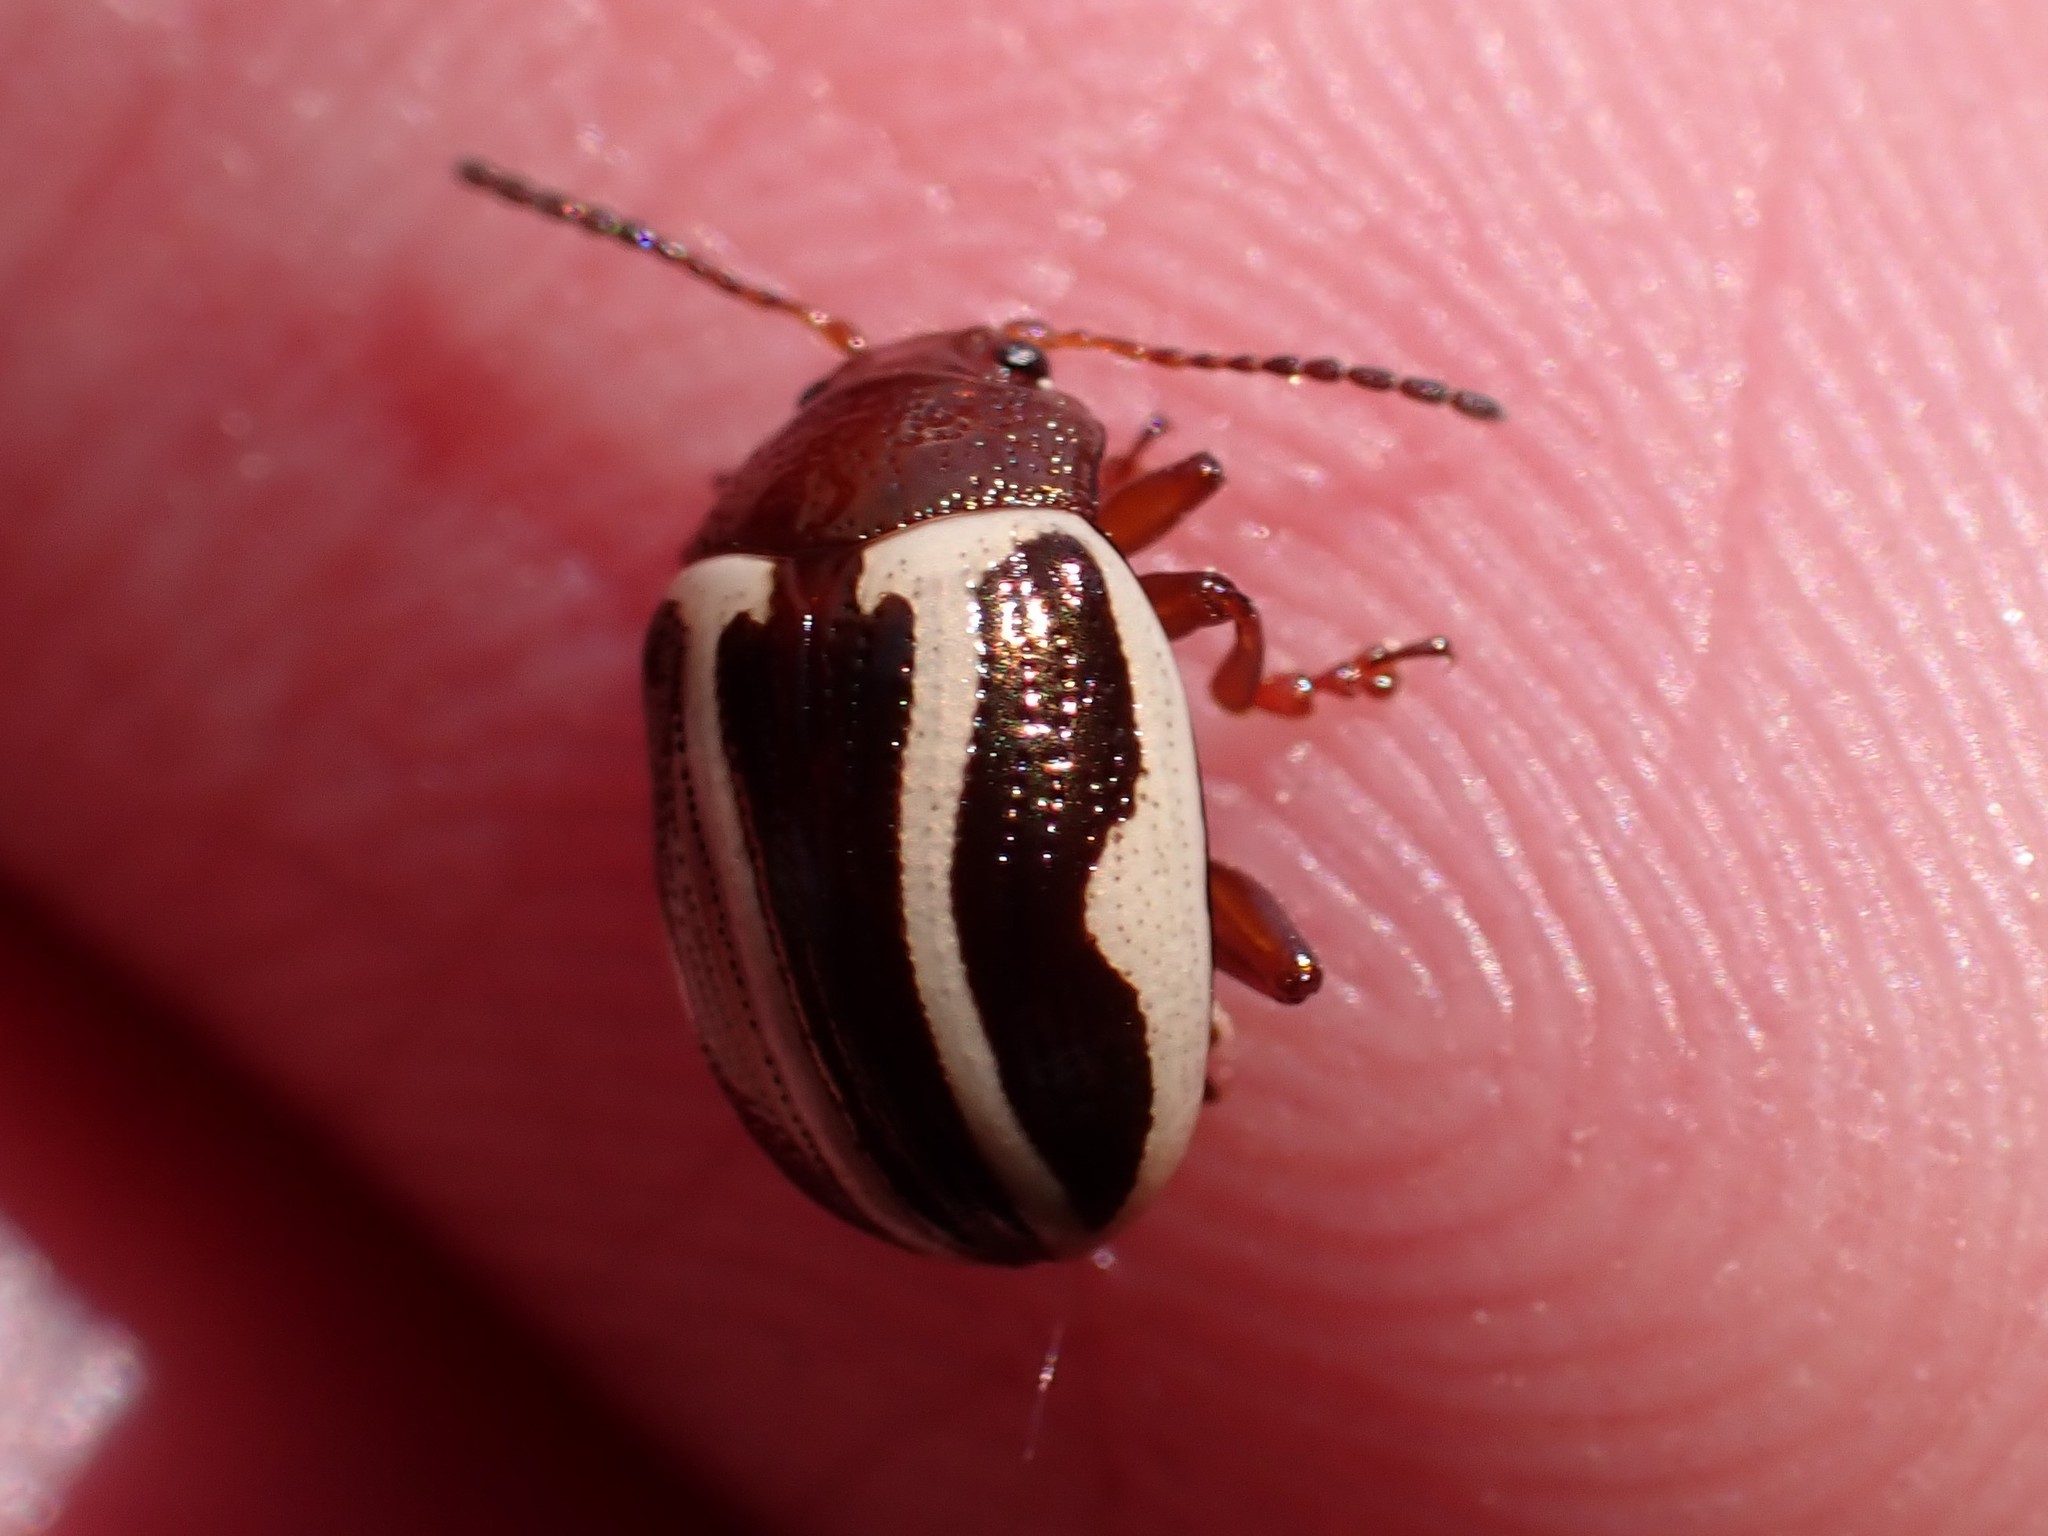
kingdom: Animalia
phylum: Arthropoda
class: Insecta
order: Coleoptera
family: Chrysomelidae
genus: Calligrapha
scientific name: Calligrapha bidenticola
